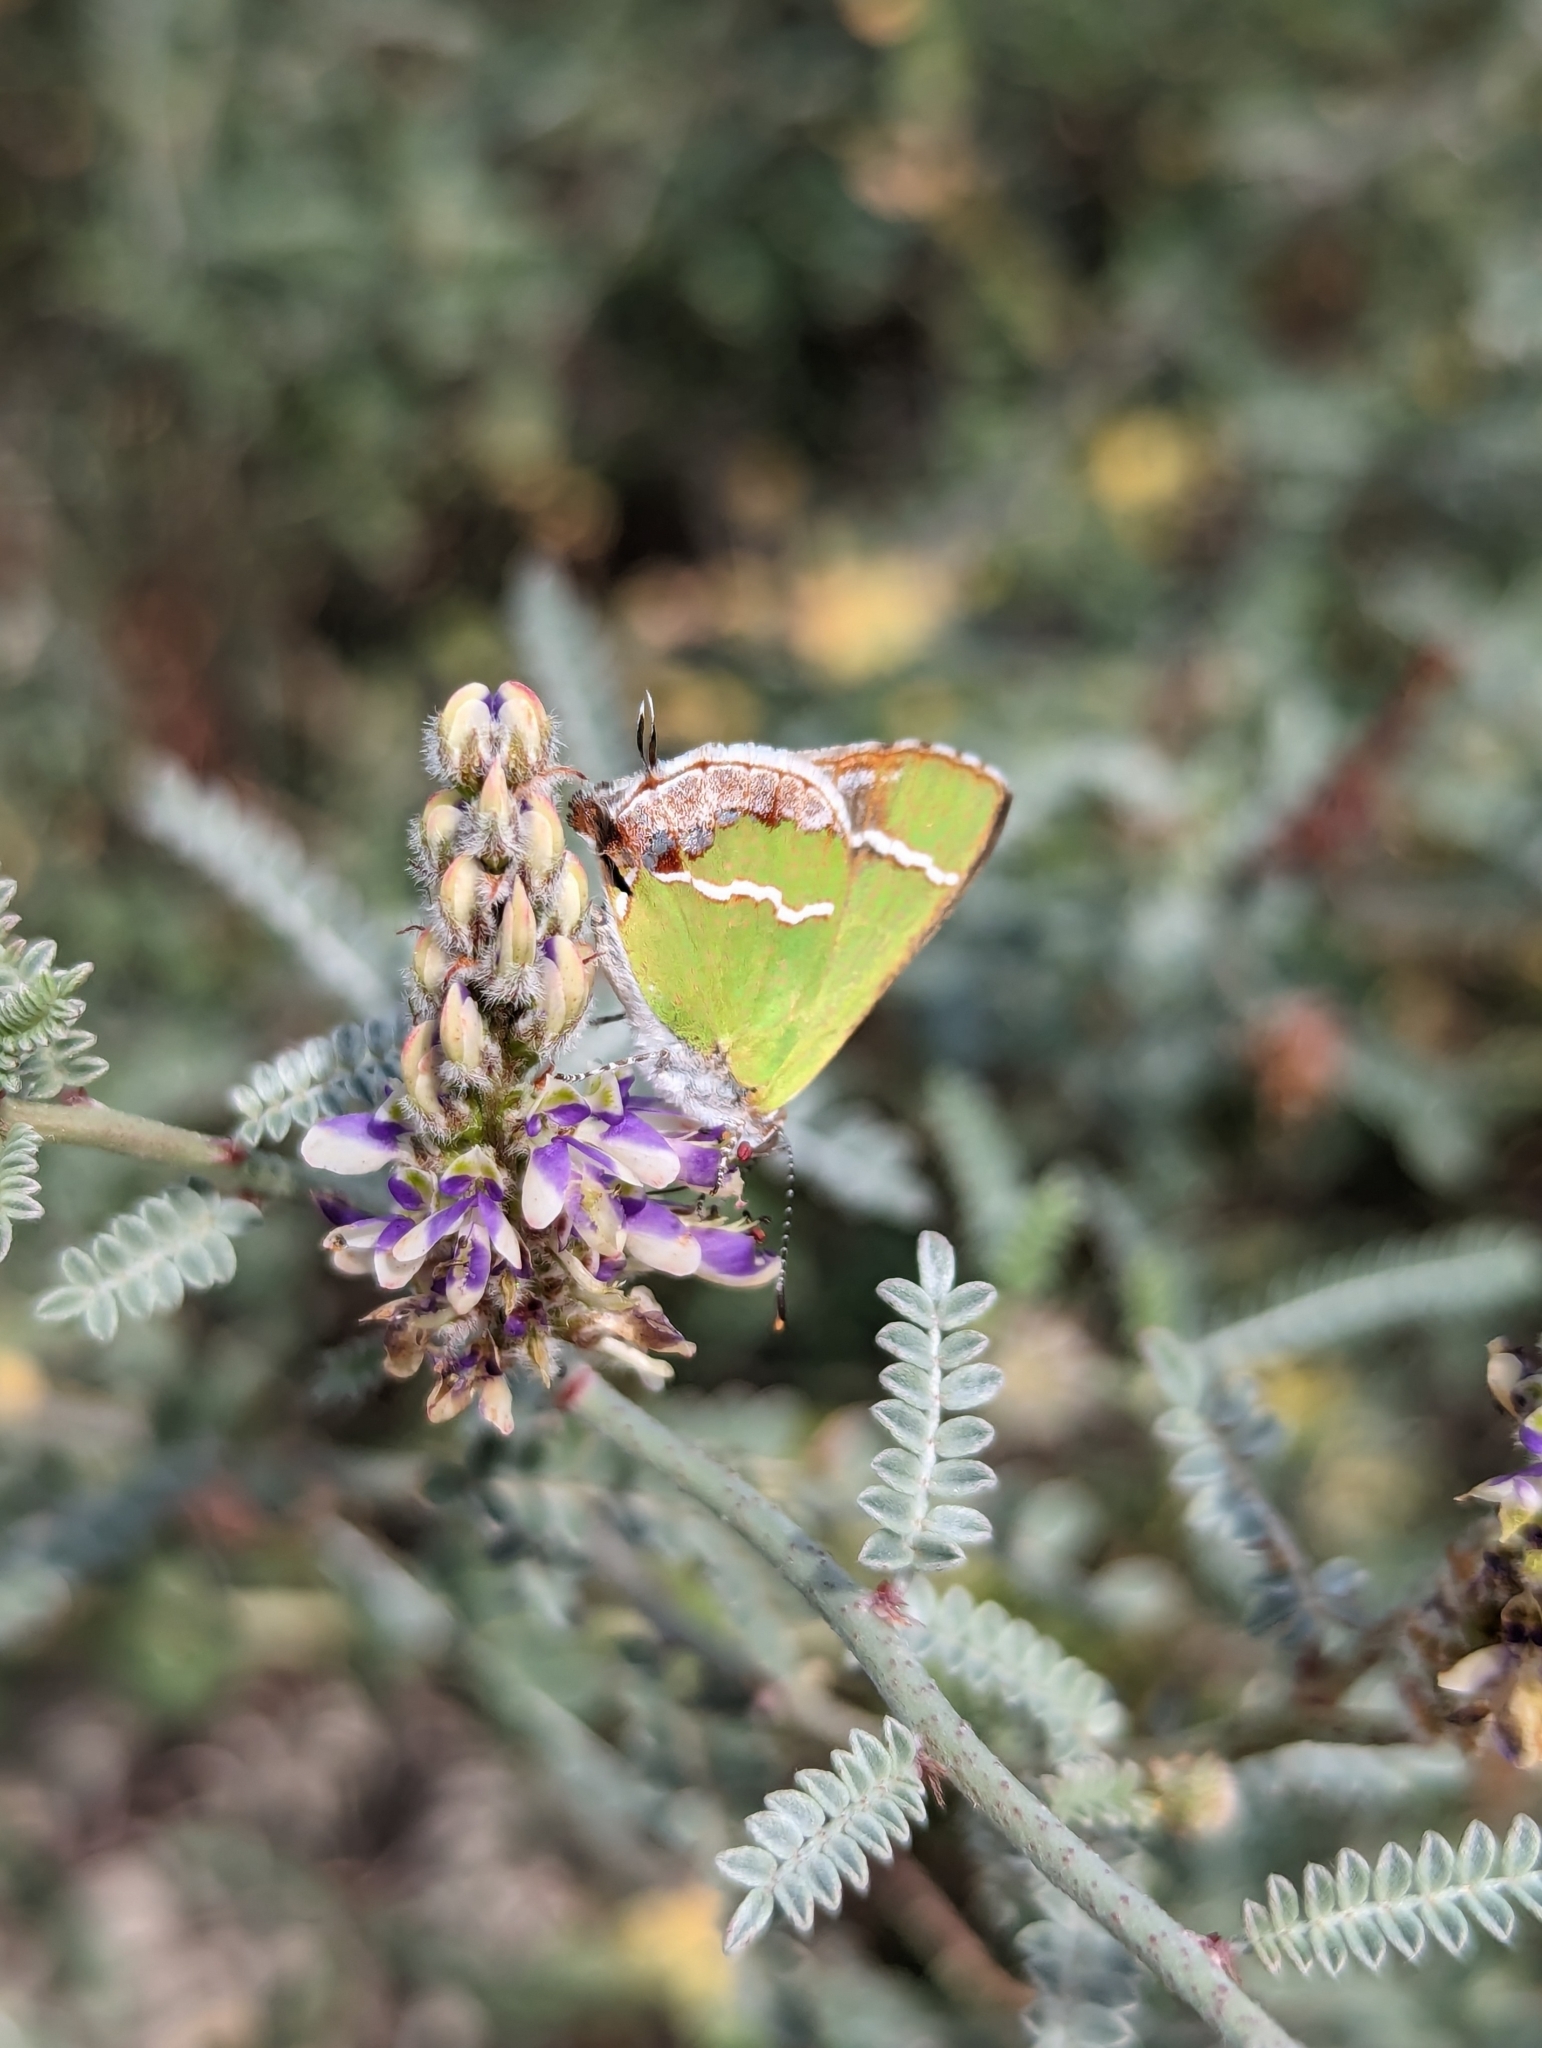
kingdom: Animalia
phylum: Arthropoda
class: Insecta
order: Lepidoptera
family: Lycaenidae
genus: Chlorostrymon
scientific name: Chlorostrymon simaethis
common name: Silver-banded hairstreak
